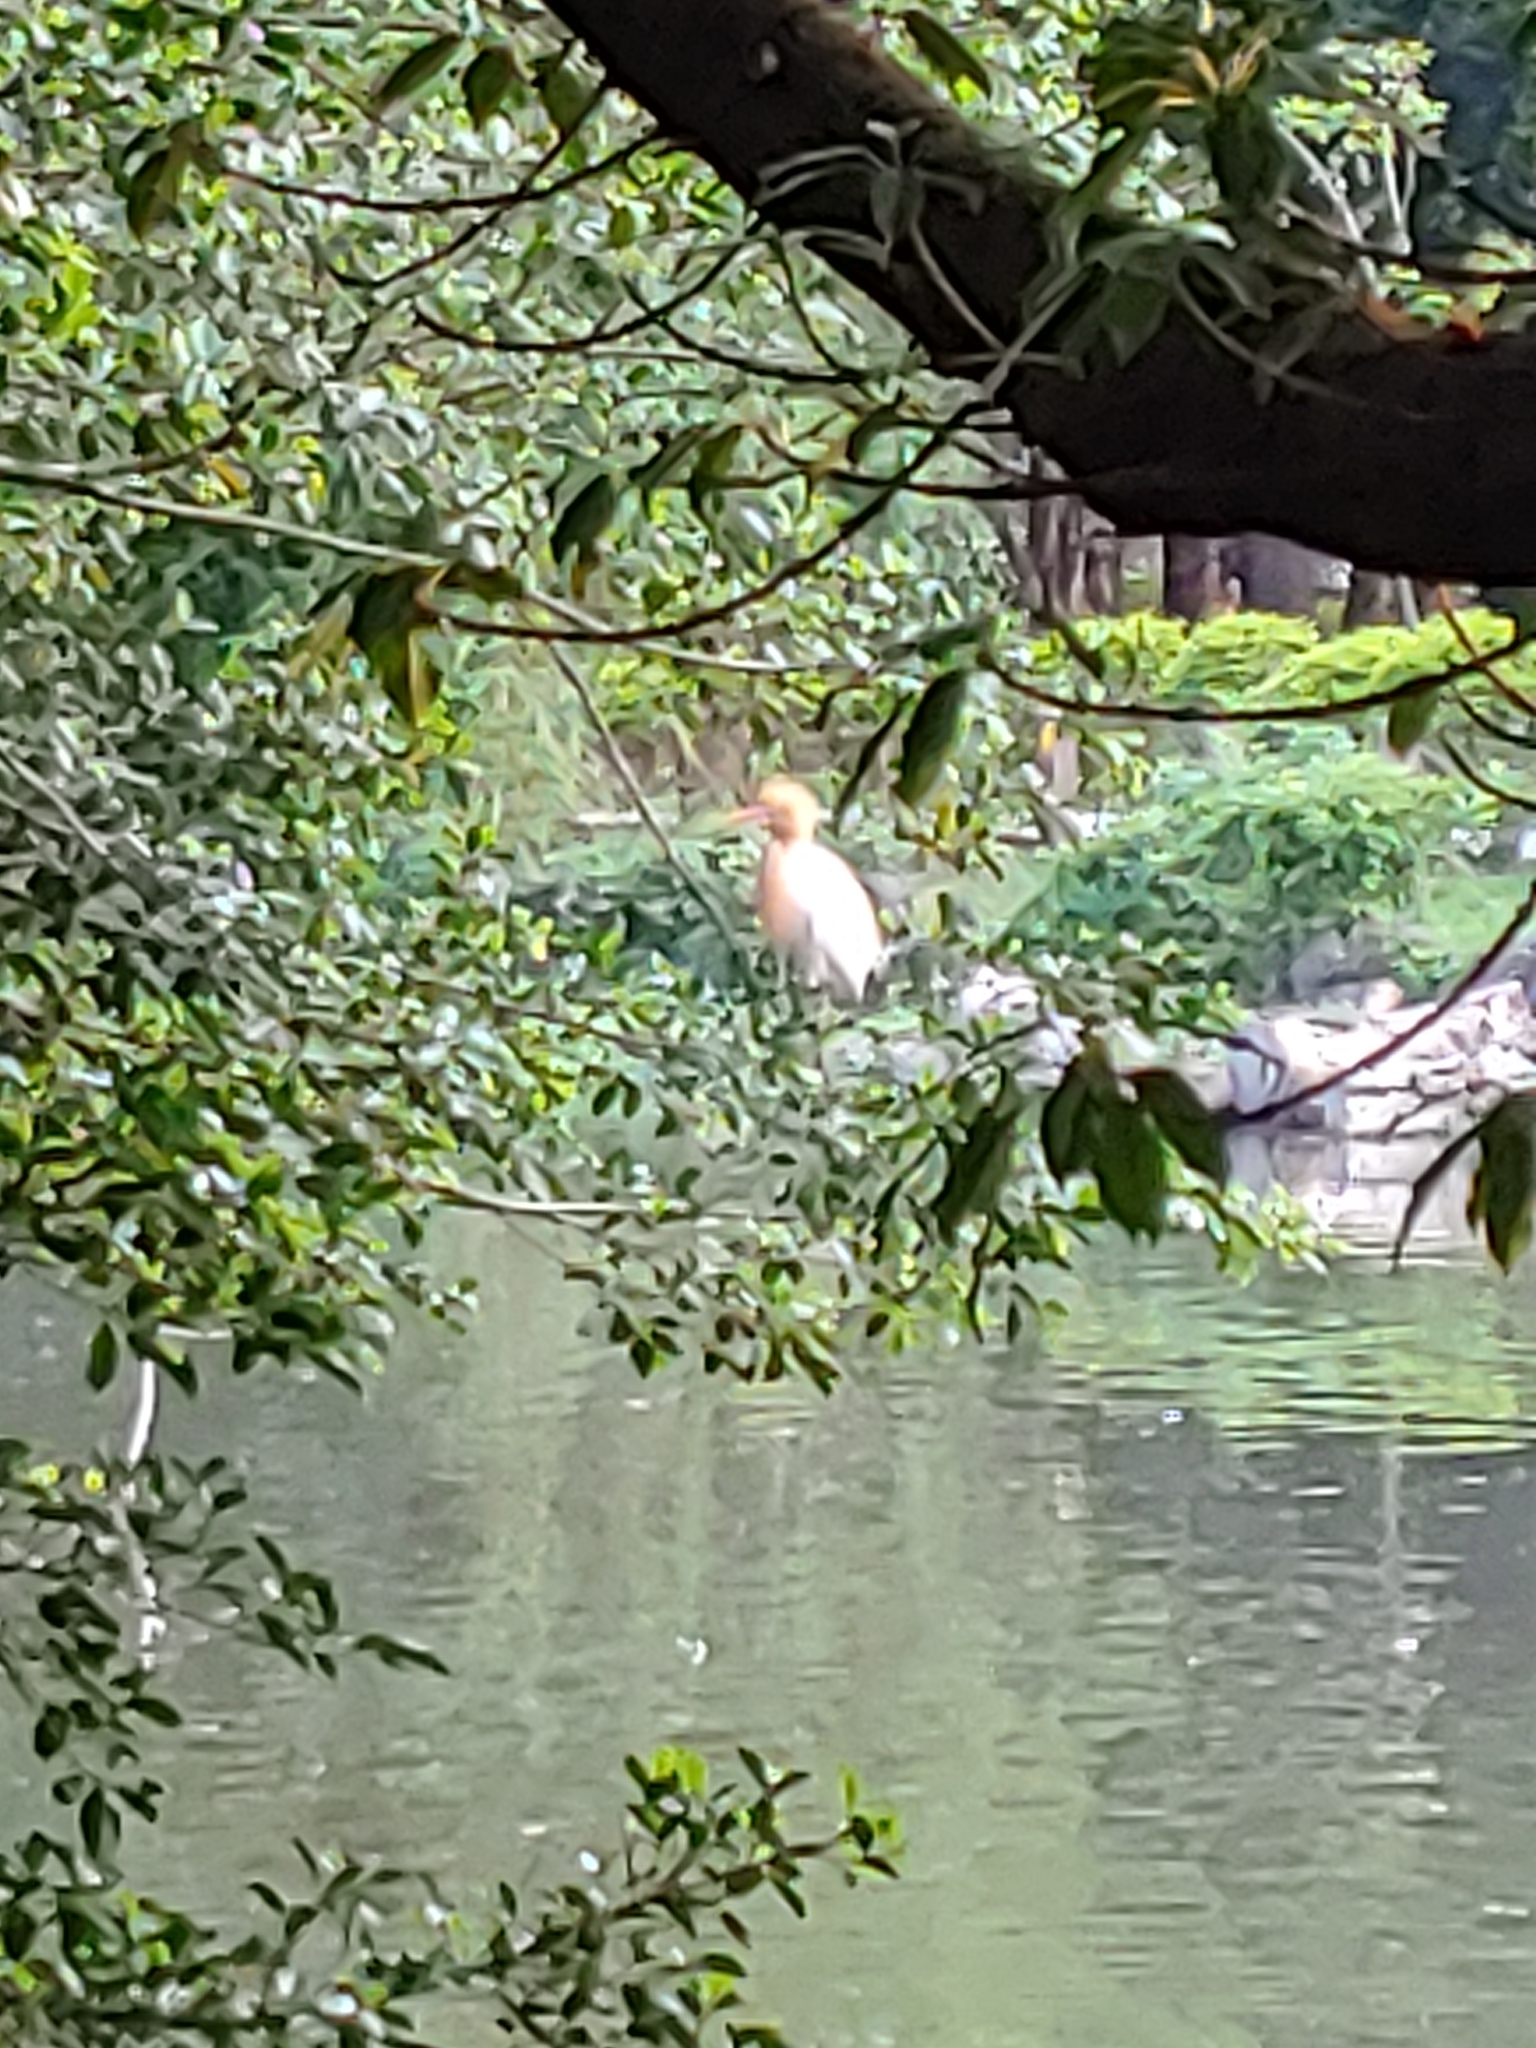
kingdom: Animalia
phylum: Chordata
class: Aves
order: Pelecaniformes
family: Ardeidae
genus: Bubulcus
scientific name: Bubulcus coromandus
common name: Eastern cattle egret
